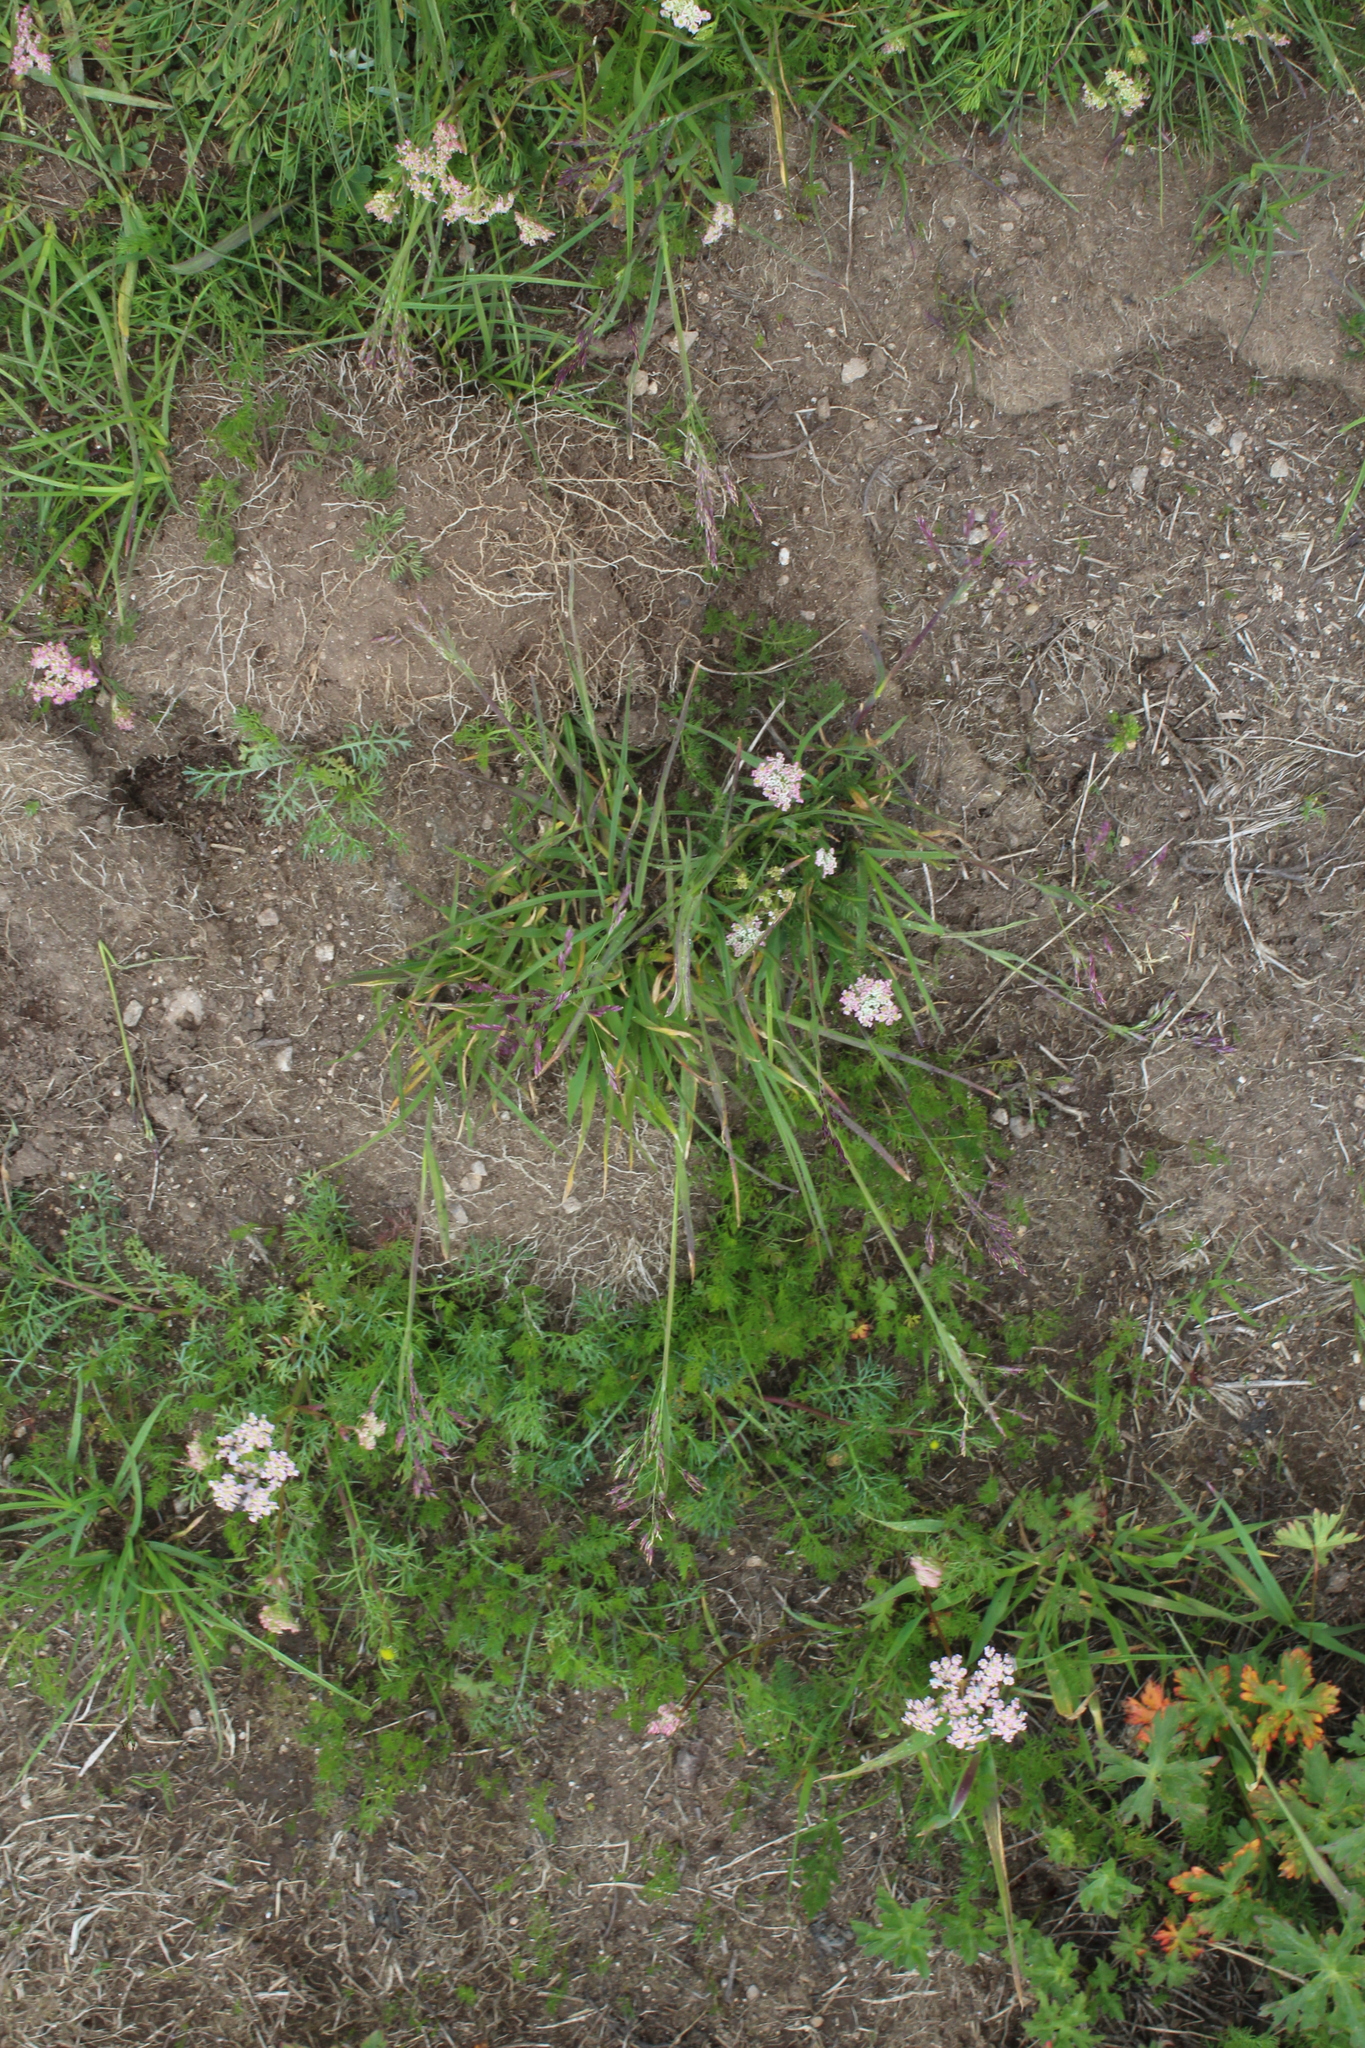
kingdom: Plantae
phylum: Tracheophyta
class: Liliopsida
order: Poales
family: Poaceae
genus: Catabrosella
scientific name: Catabrosella variegata
